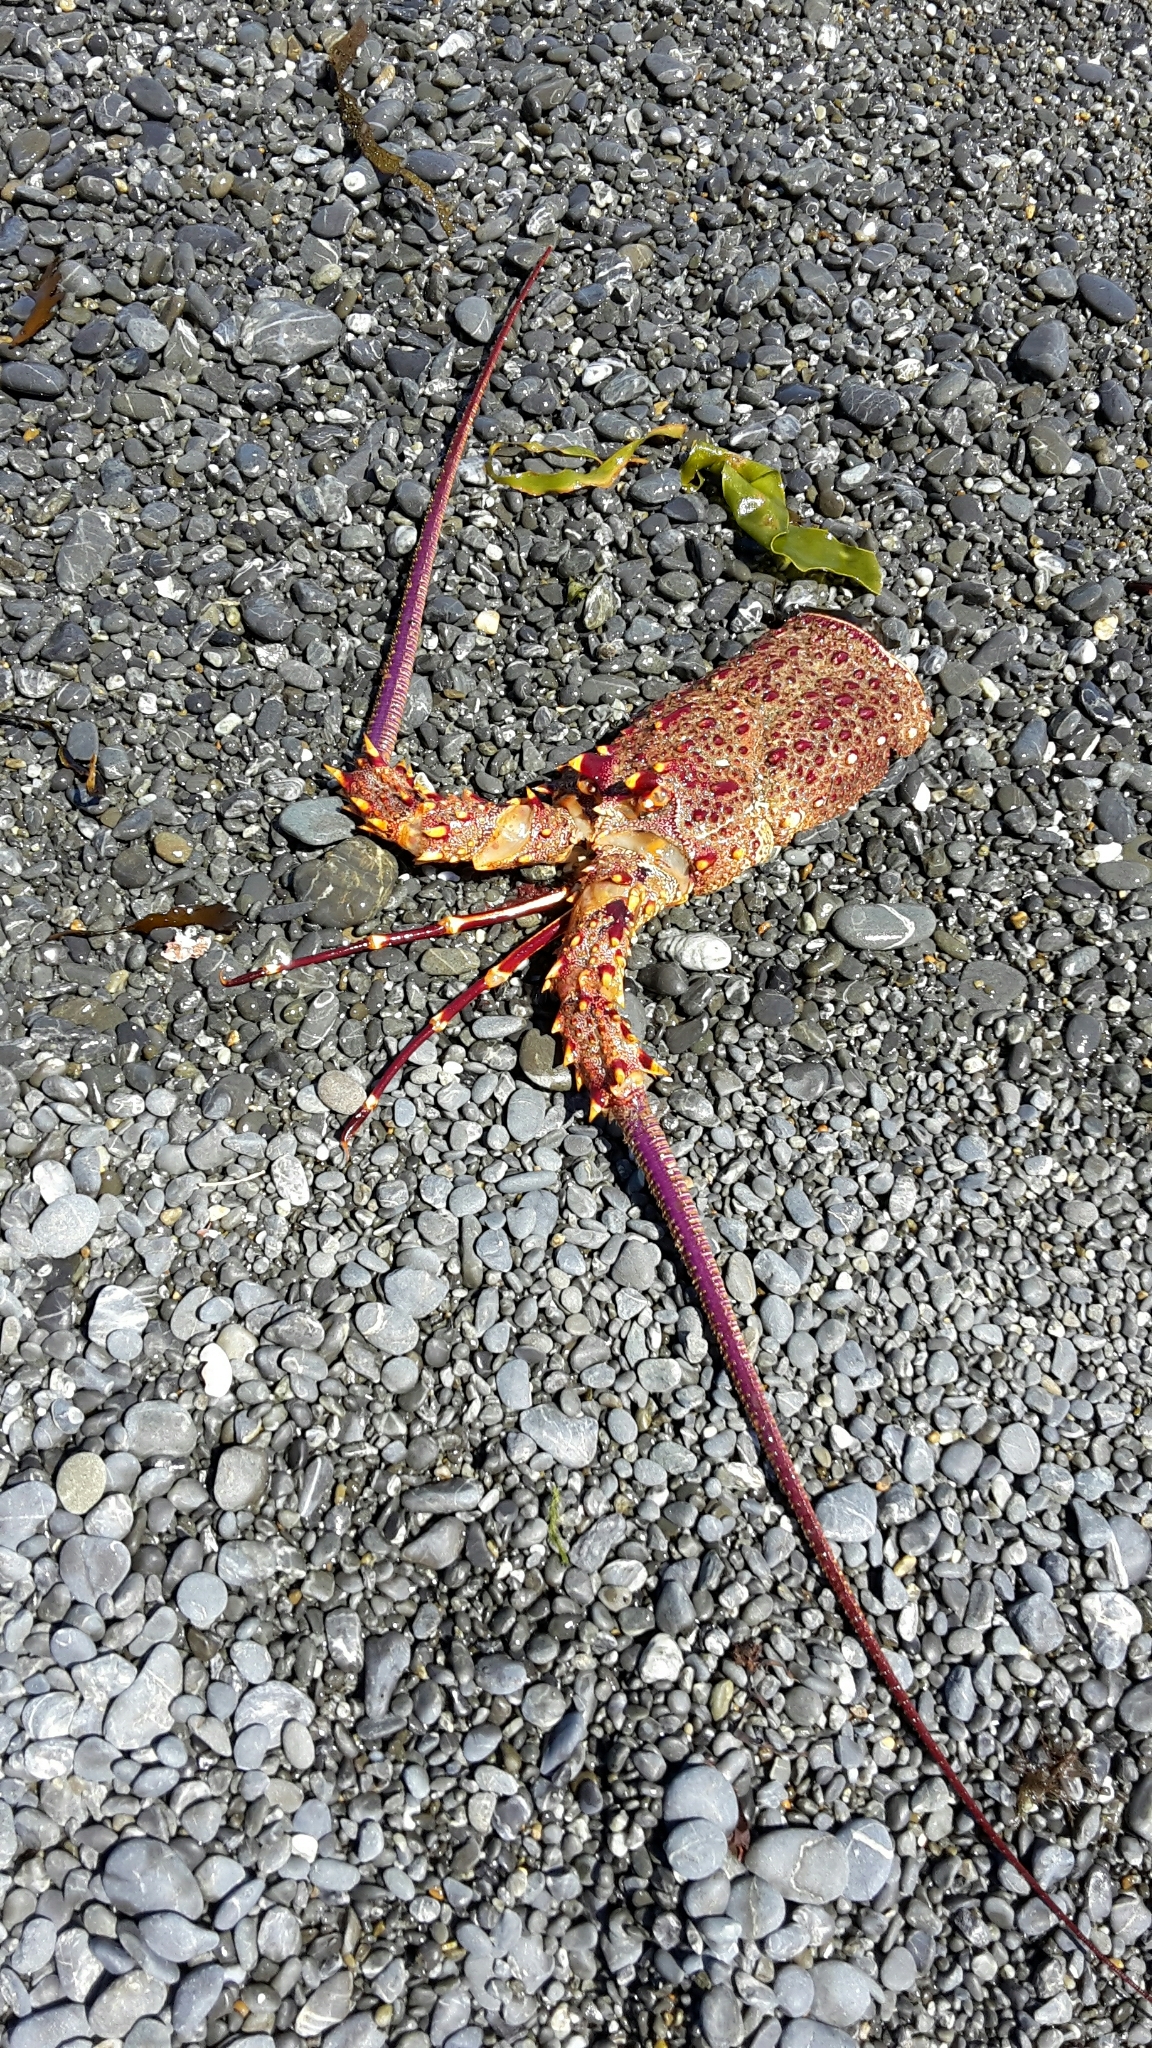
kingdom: Animalia
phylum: Arthropoda
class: Malacostraca
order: Decapoda
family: Palinuridae
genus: Jasus
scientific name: Jasus edwardsii
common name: Red rock lobster
